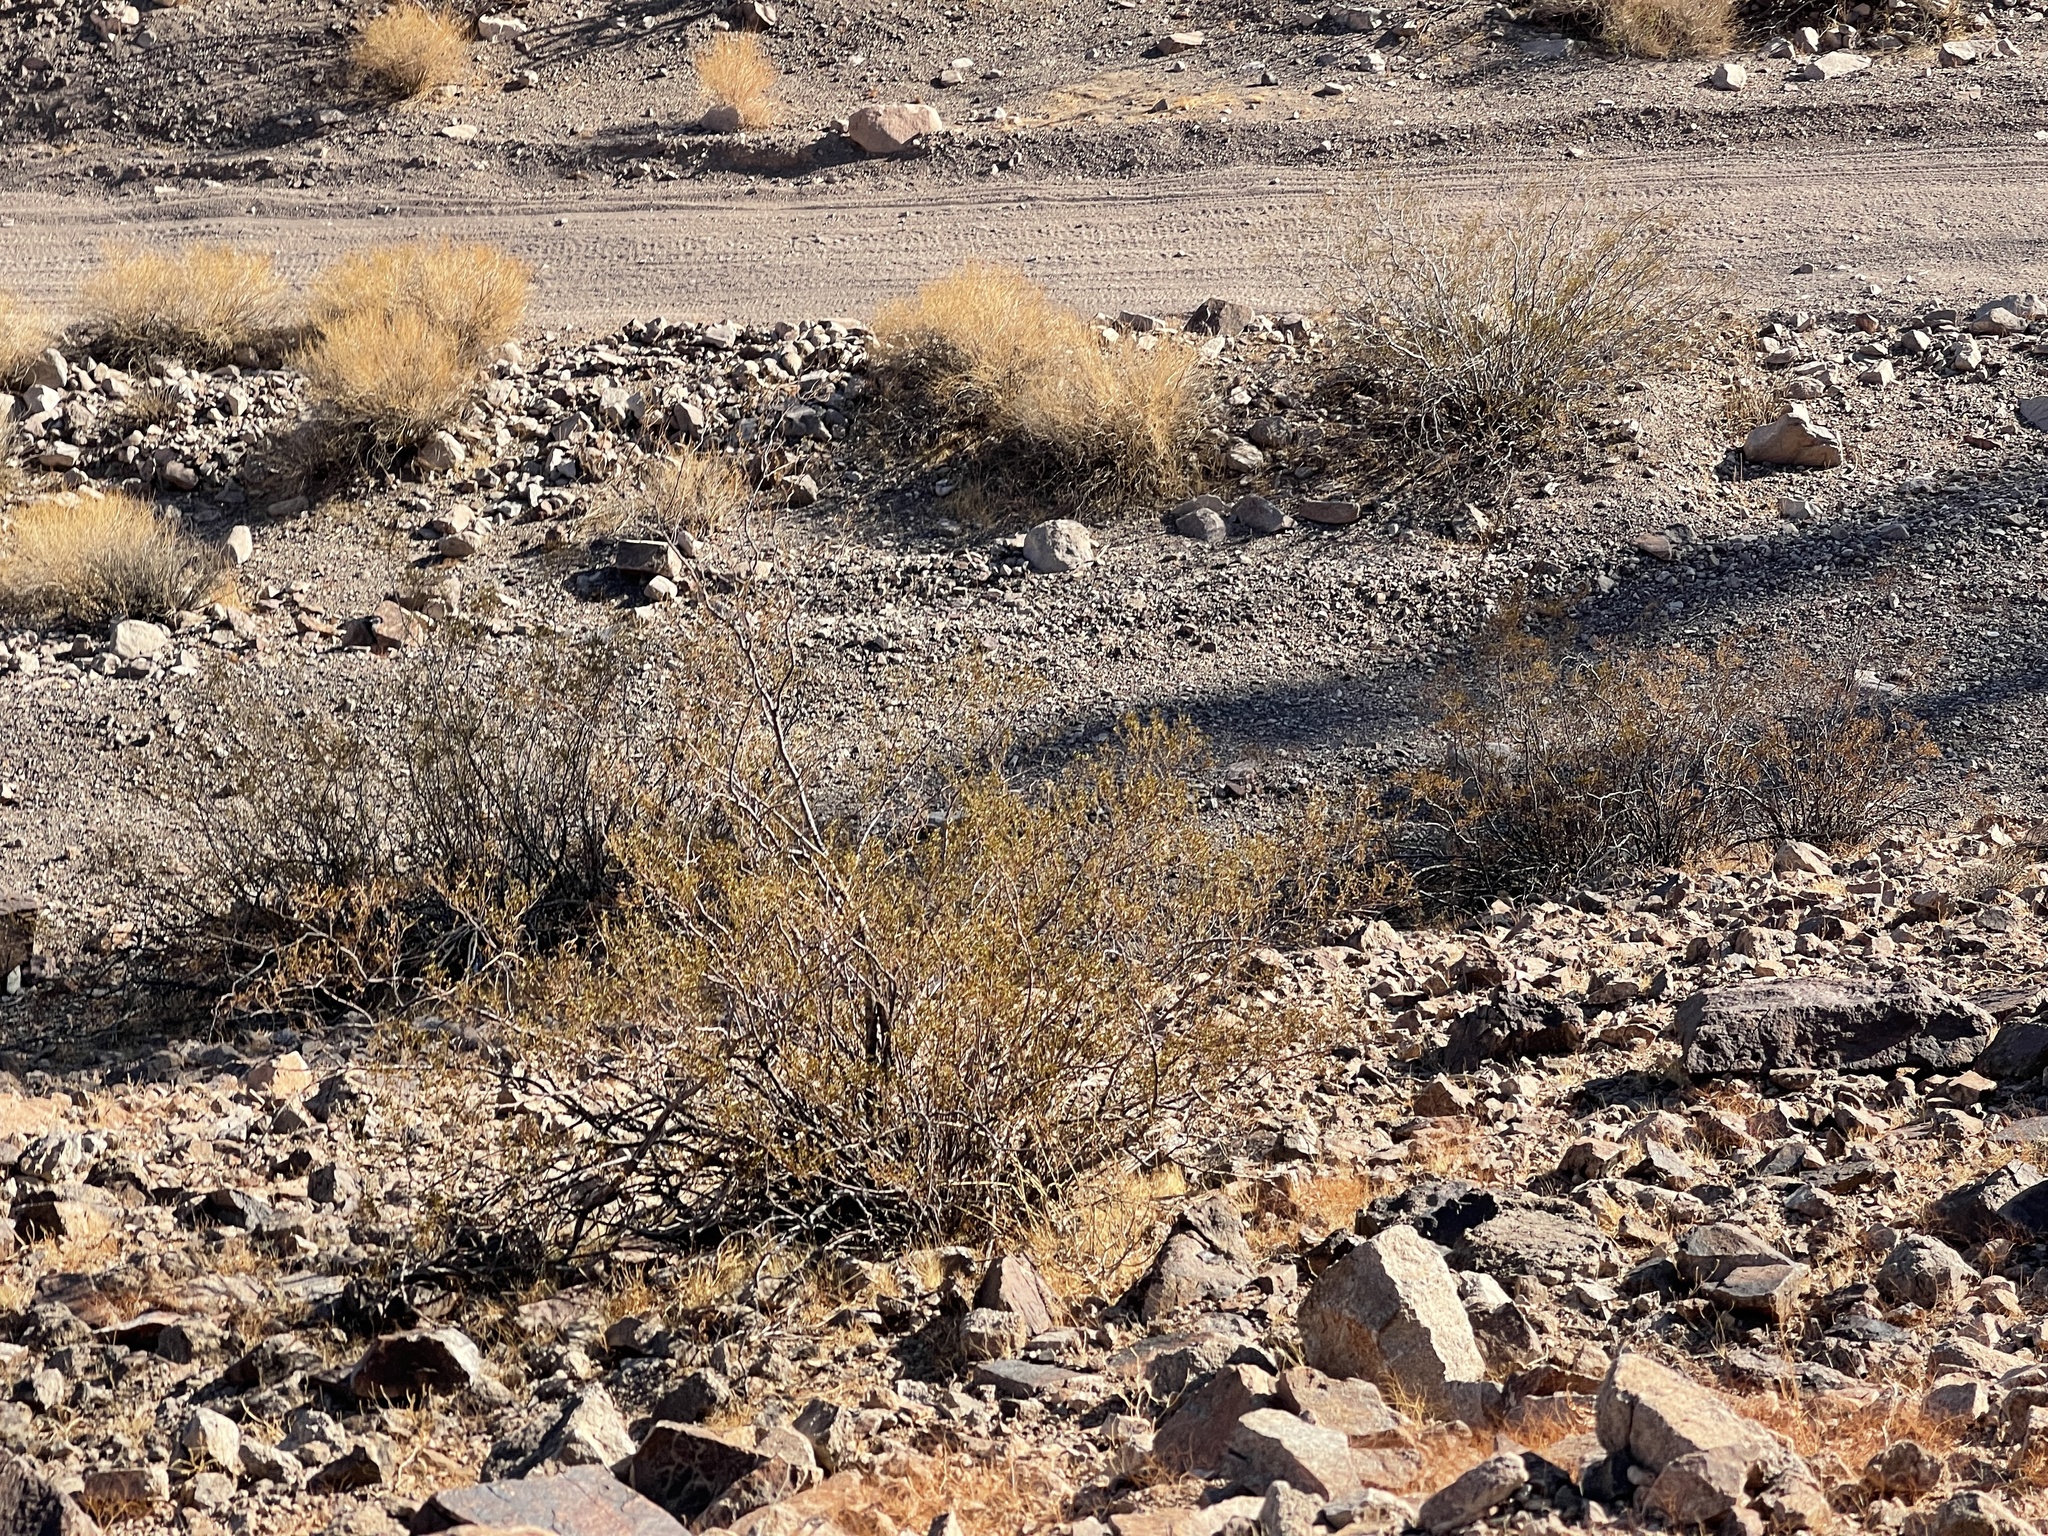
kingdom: Plantae
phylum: Tracheophyta
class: Magnoliopsida
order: Zygophyllales
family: Zygophyllaceae
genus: Larrea
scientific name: Larrea tridentata
